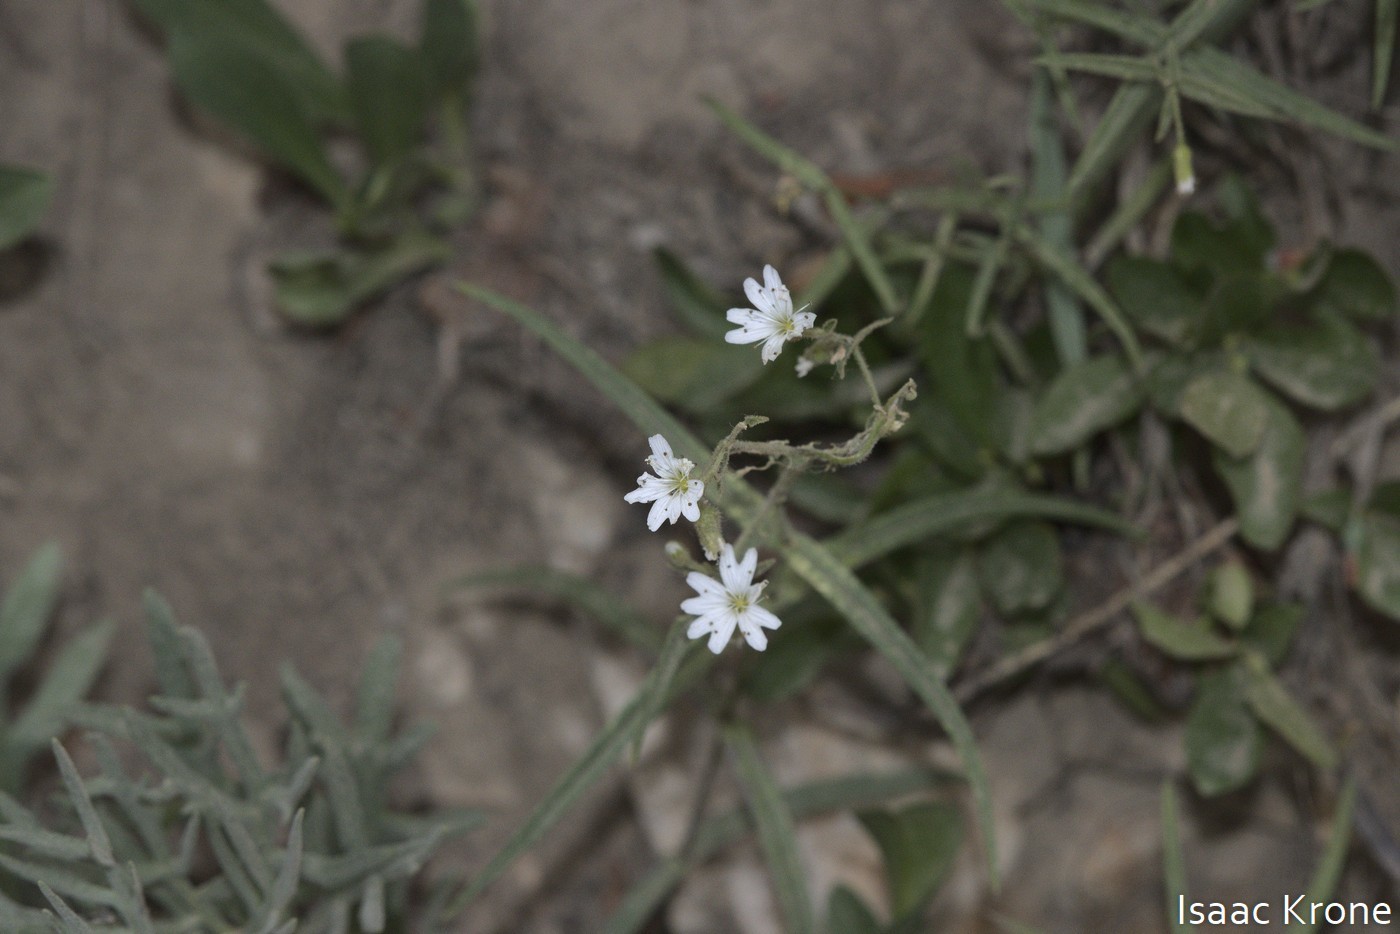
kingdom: Plantae
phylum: Tracheophyta
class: Magnoliopsida
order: Caryophyllales
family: Caryophyllaceae
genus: Schizotechium
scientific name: Schizotechium jamesianum
